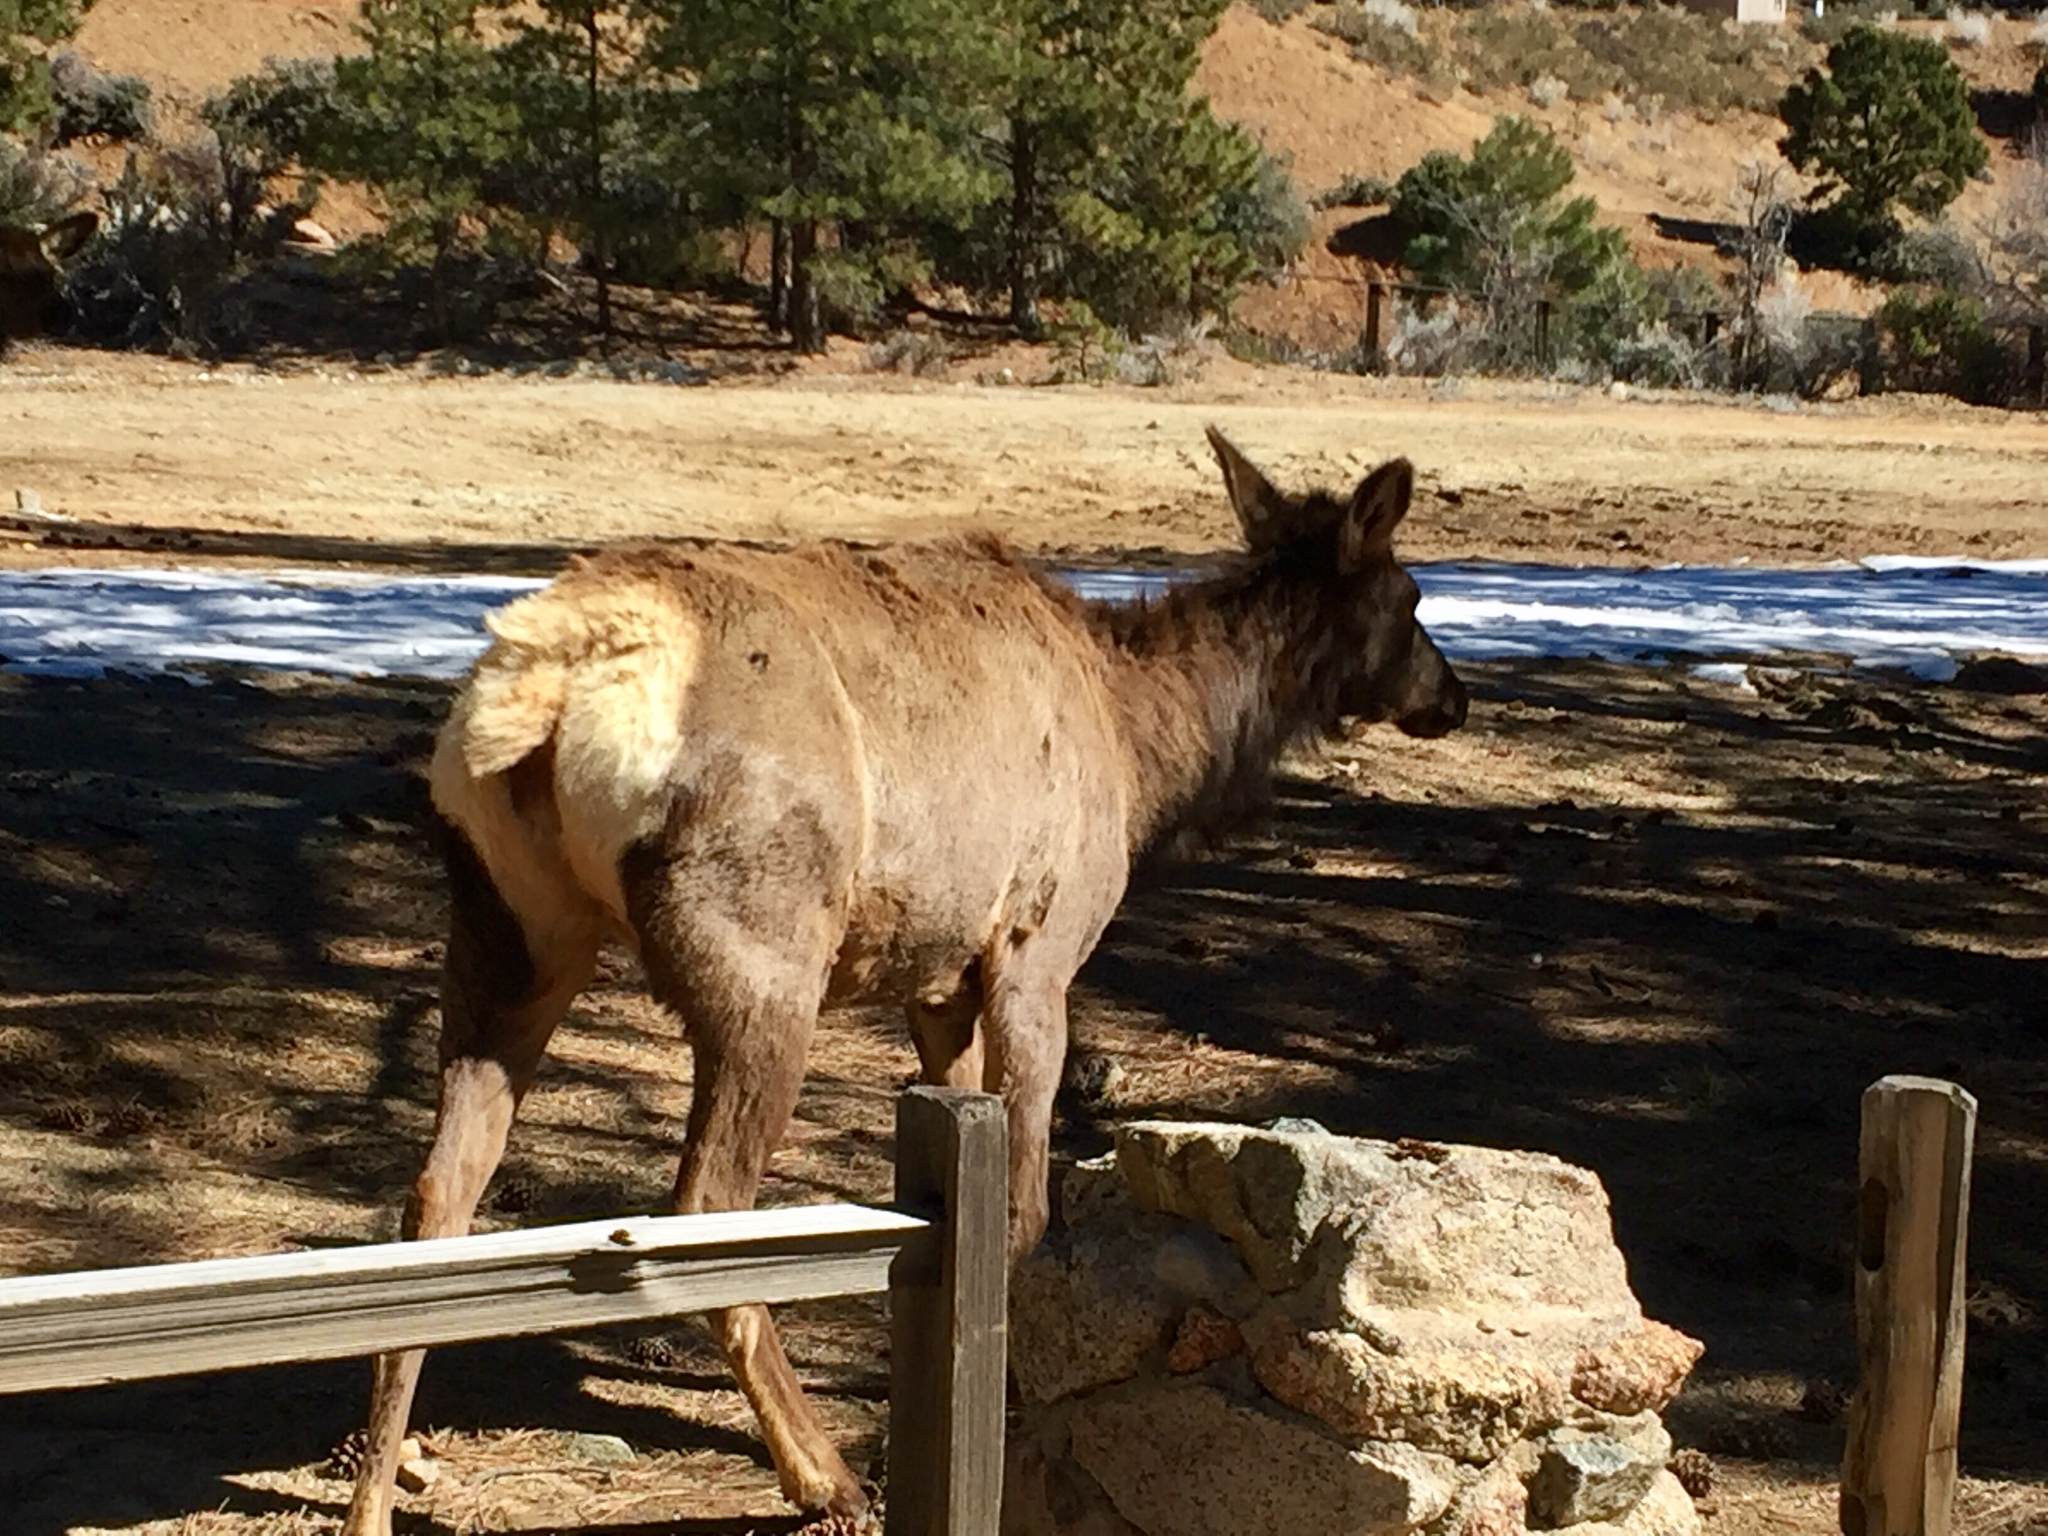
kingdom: Animalia
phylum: Chordata
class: Mammalia
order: Artiodactyla
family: Cervidae
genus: Cervus
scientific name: Cervus elaphus
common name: Red deer
